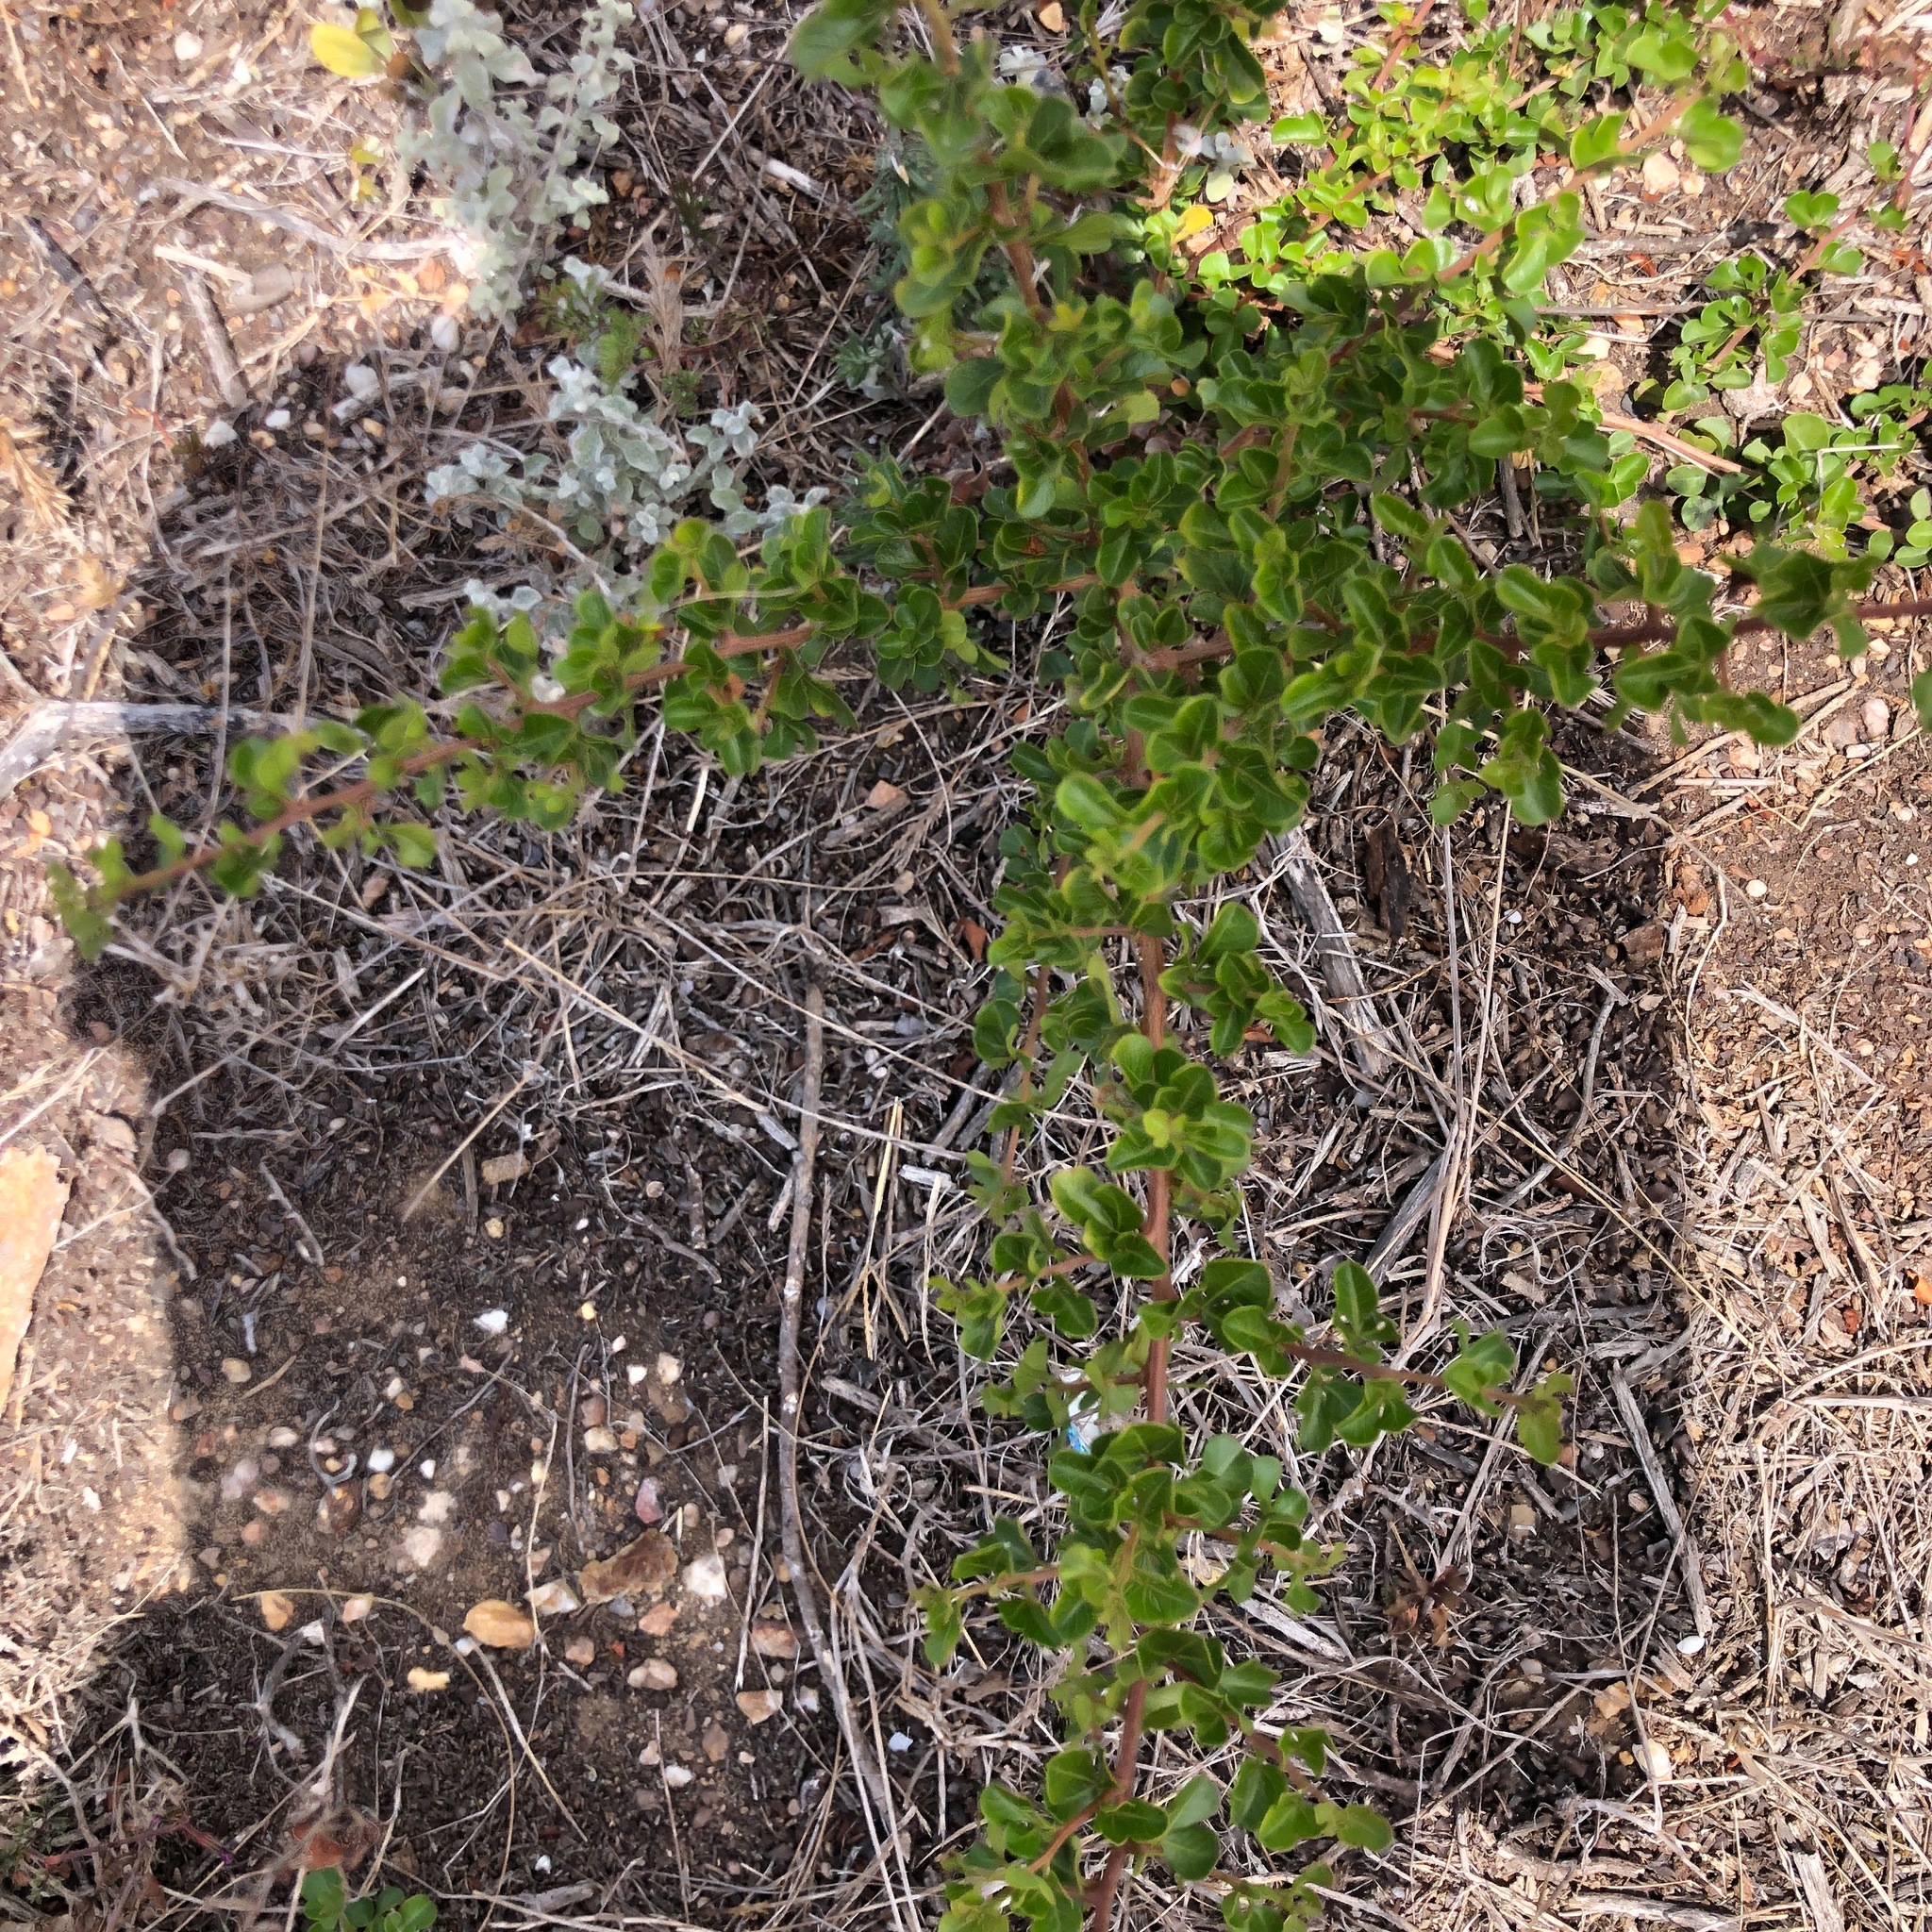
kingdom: Plantae
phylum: Tracheophyta
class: Magnoliopsida
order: Sapindales
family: Anacardiaceae
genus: Searsia
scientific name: Searsia glauca
